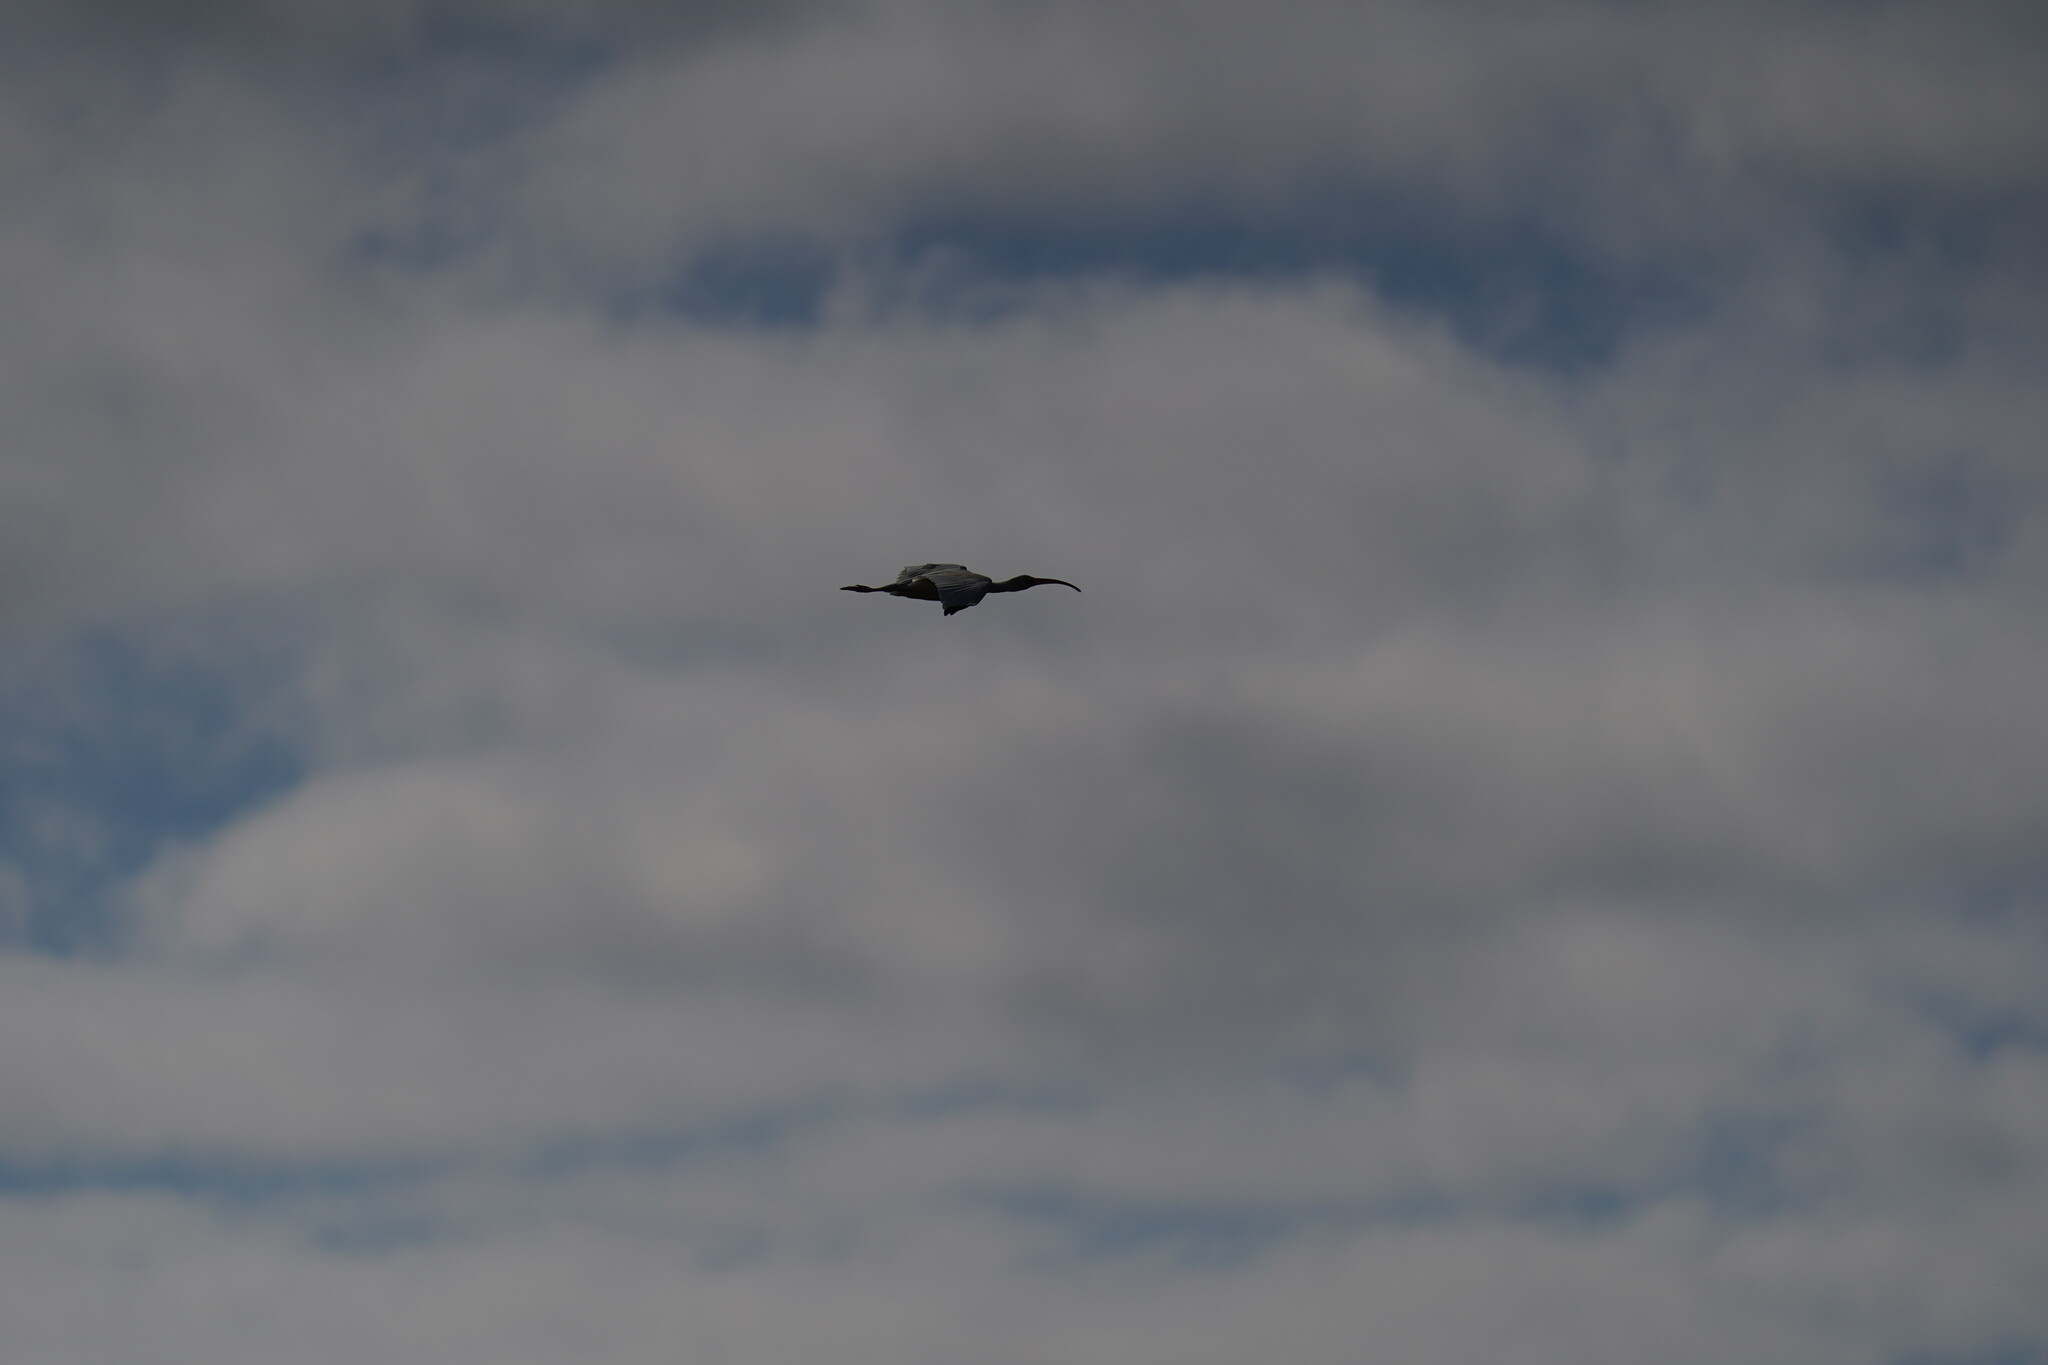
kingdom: Animalia
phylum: Chordata
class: Aves
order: Pelecaniformes
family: Threskiornithidae
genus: Eudocimus
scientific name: Eudocimus albus
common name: White ibis
